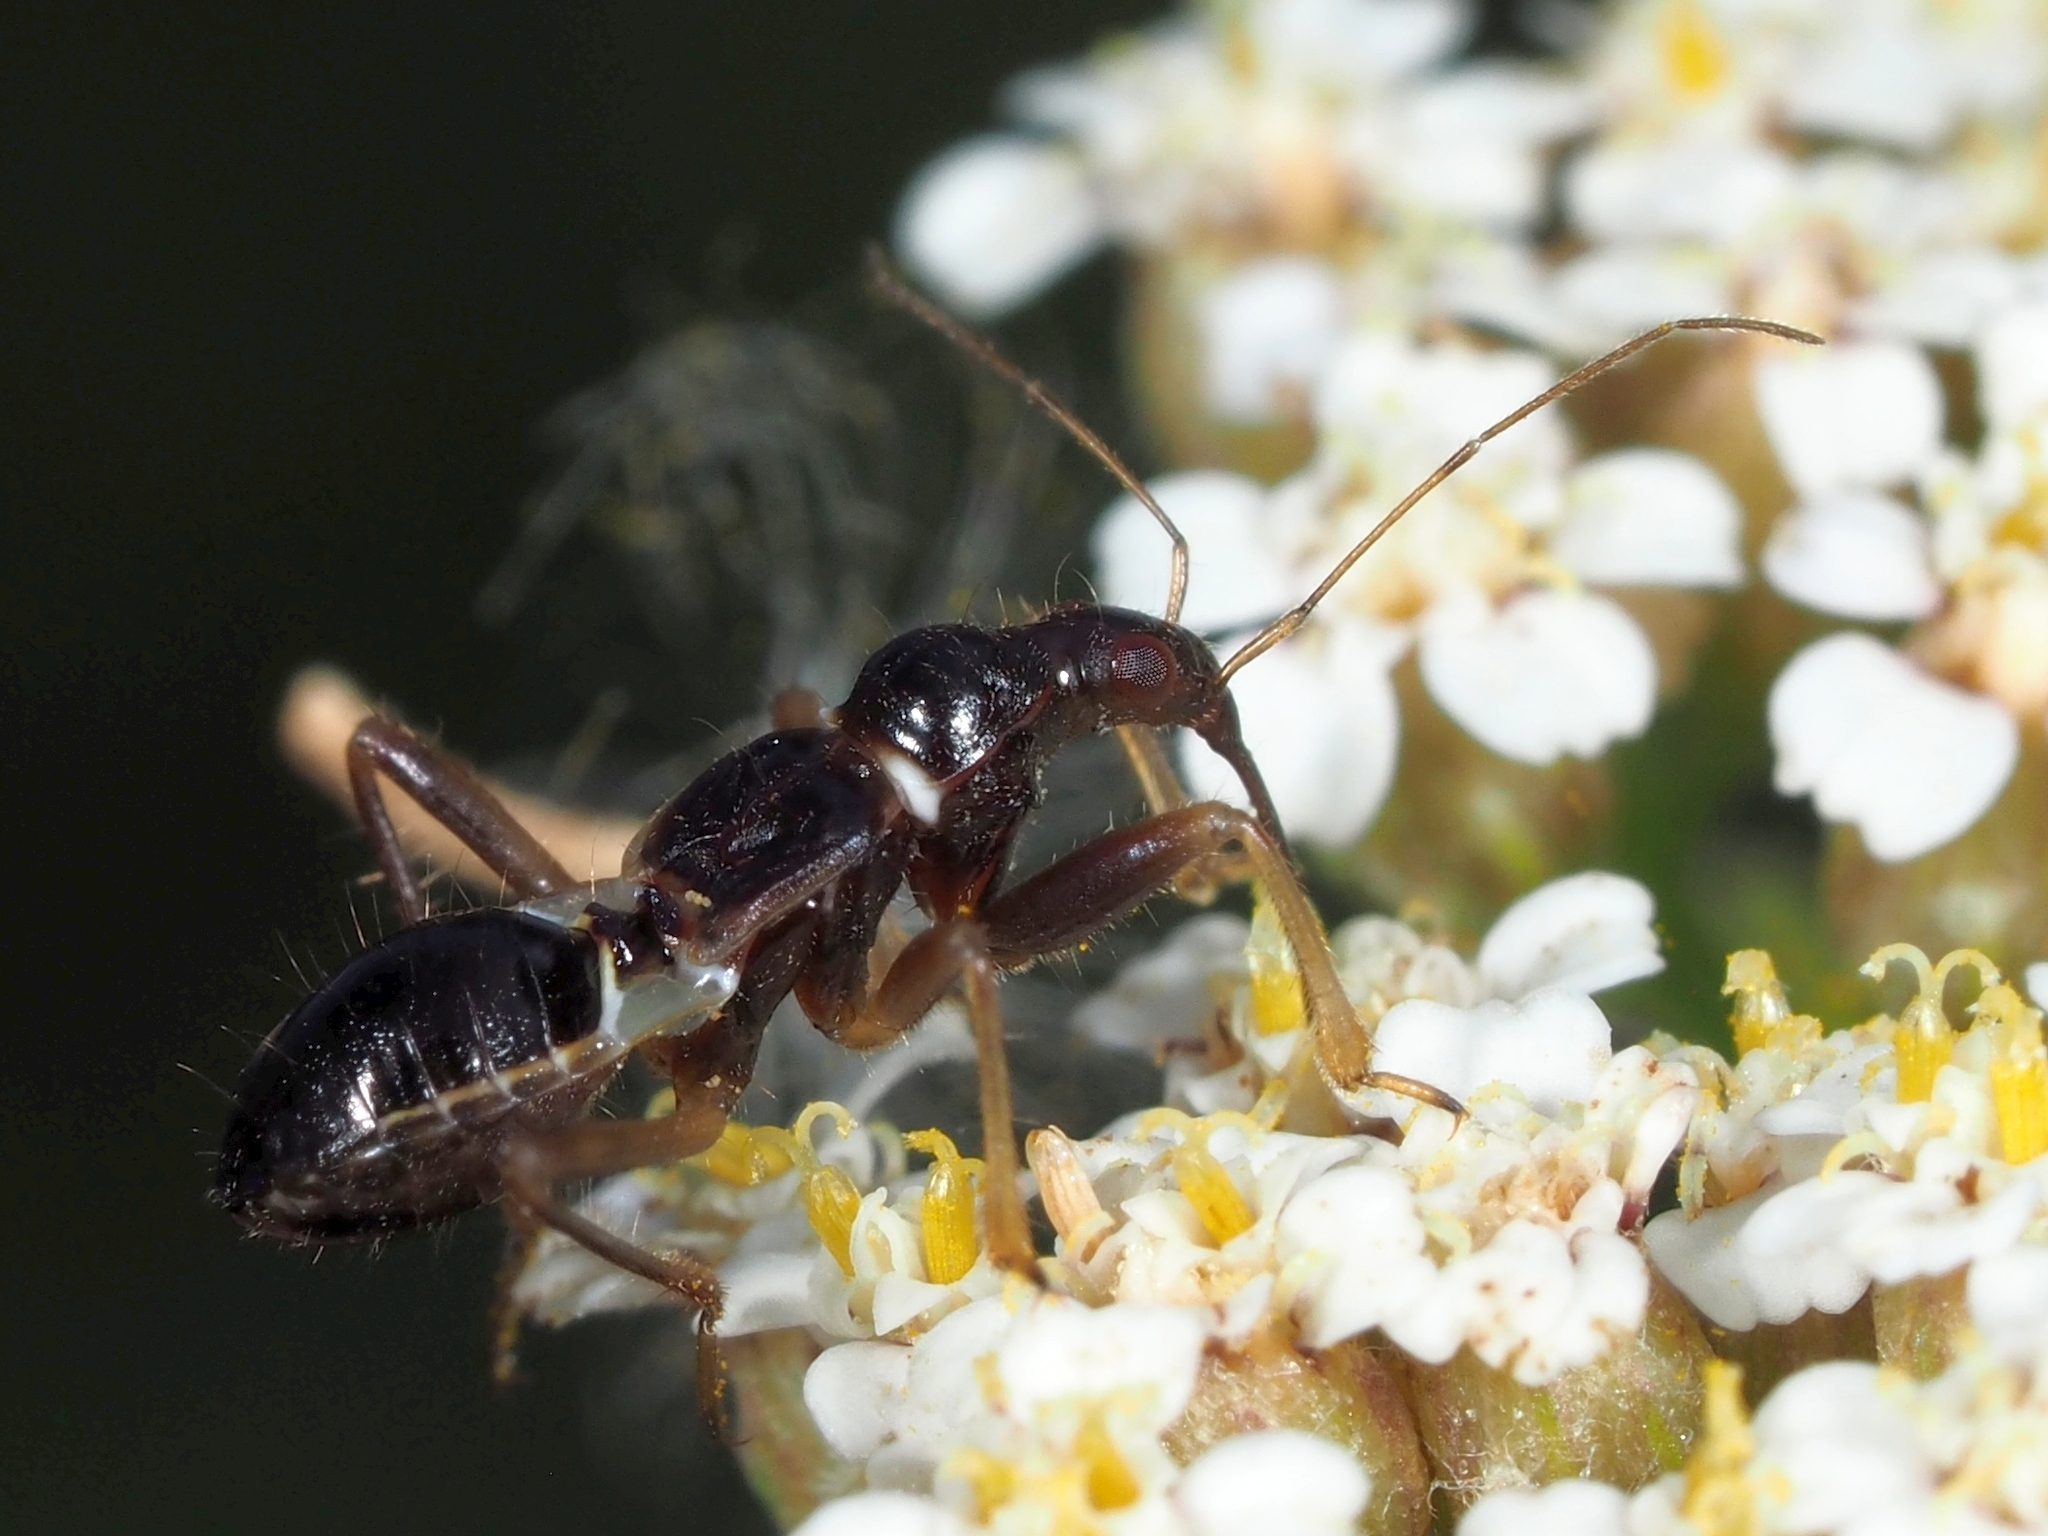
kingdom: Animalia
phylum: Arthropoda
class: Insecta
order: Hemiptera
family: Nabidae
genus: Himacerus
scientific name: Himacerus mirmicoides
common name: Ant damsel bug
